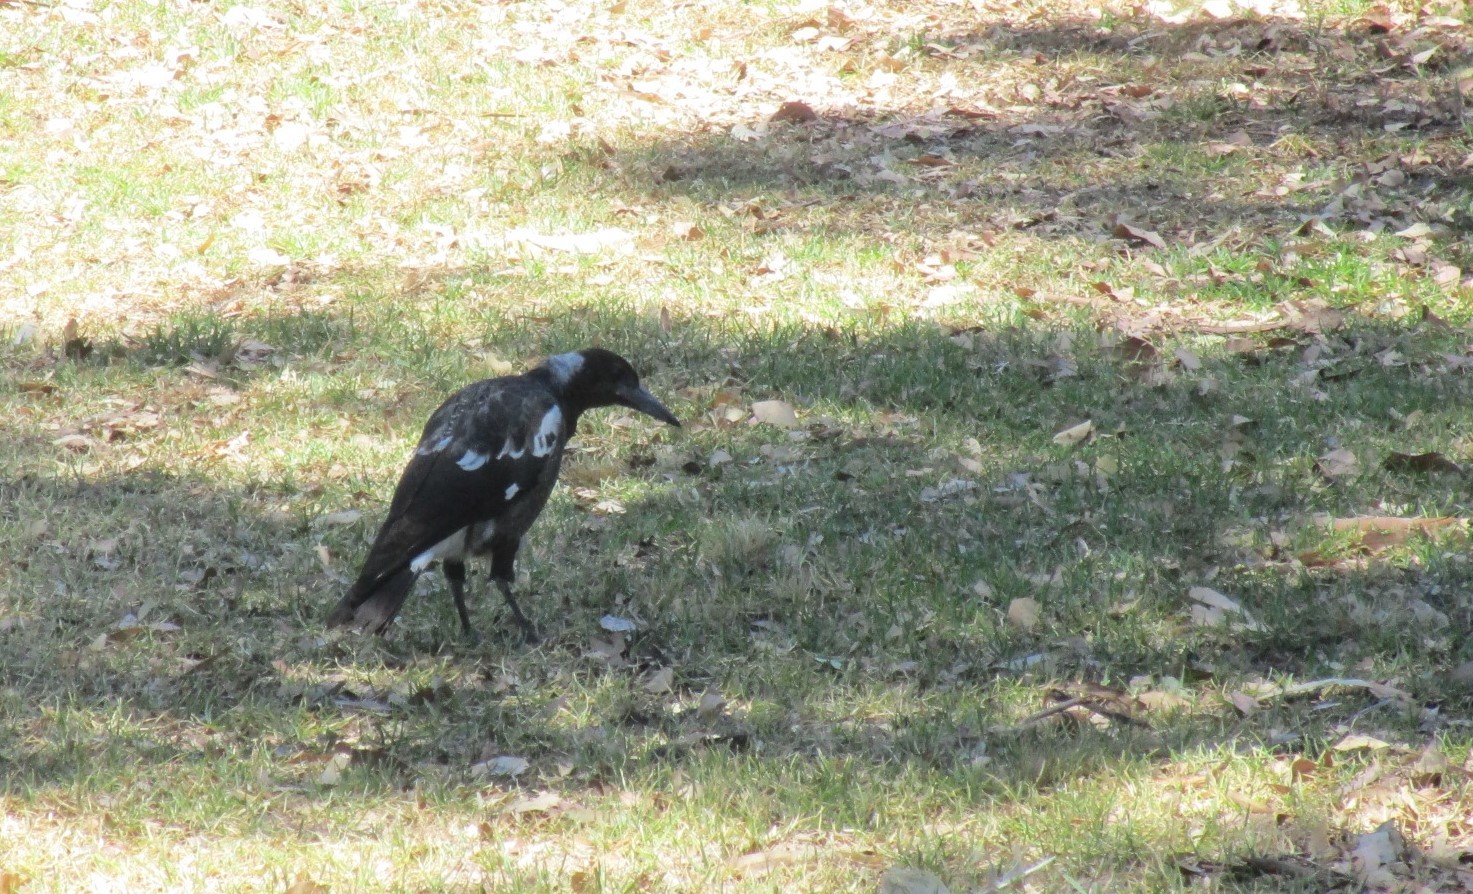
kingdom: Animalia
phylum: Chordata
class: Aves
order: Passeriformes
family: Cracticidae
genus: Gymnorhina
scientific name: Gymnorhina tibicen
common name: Australian magpie
